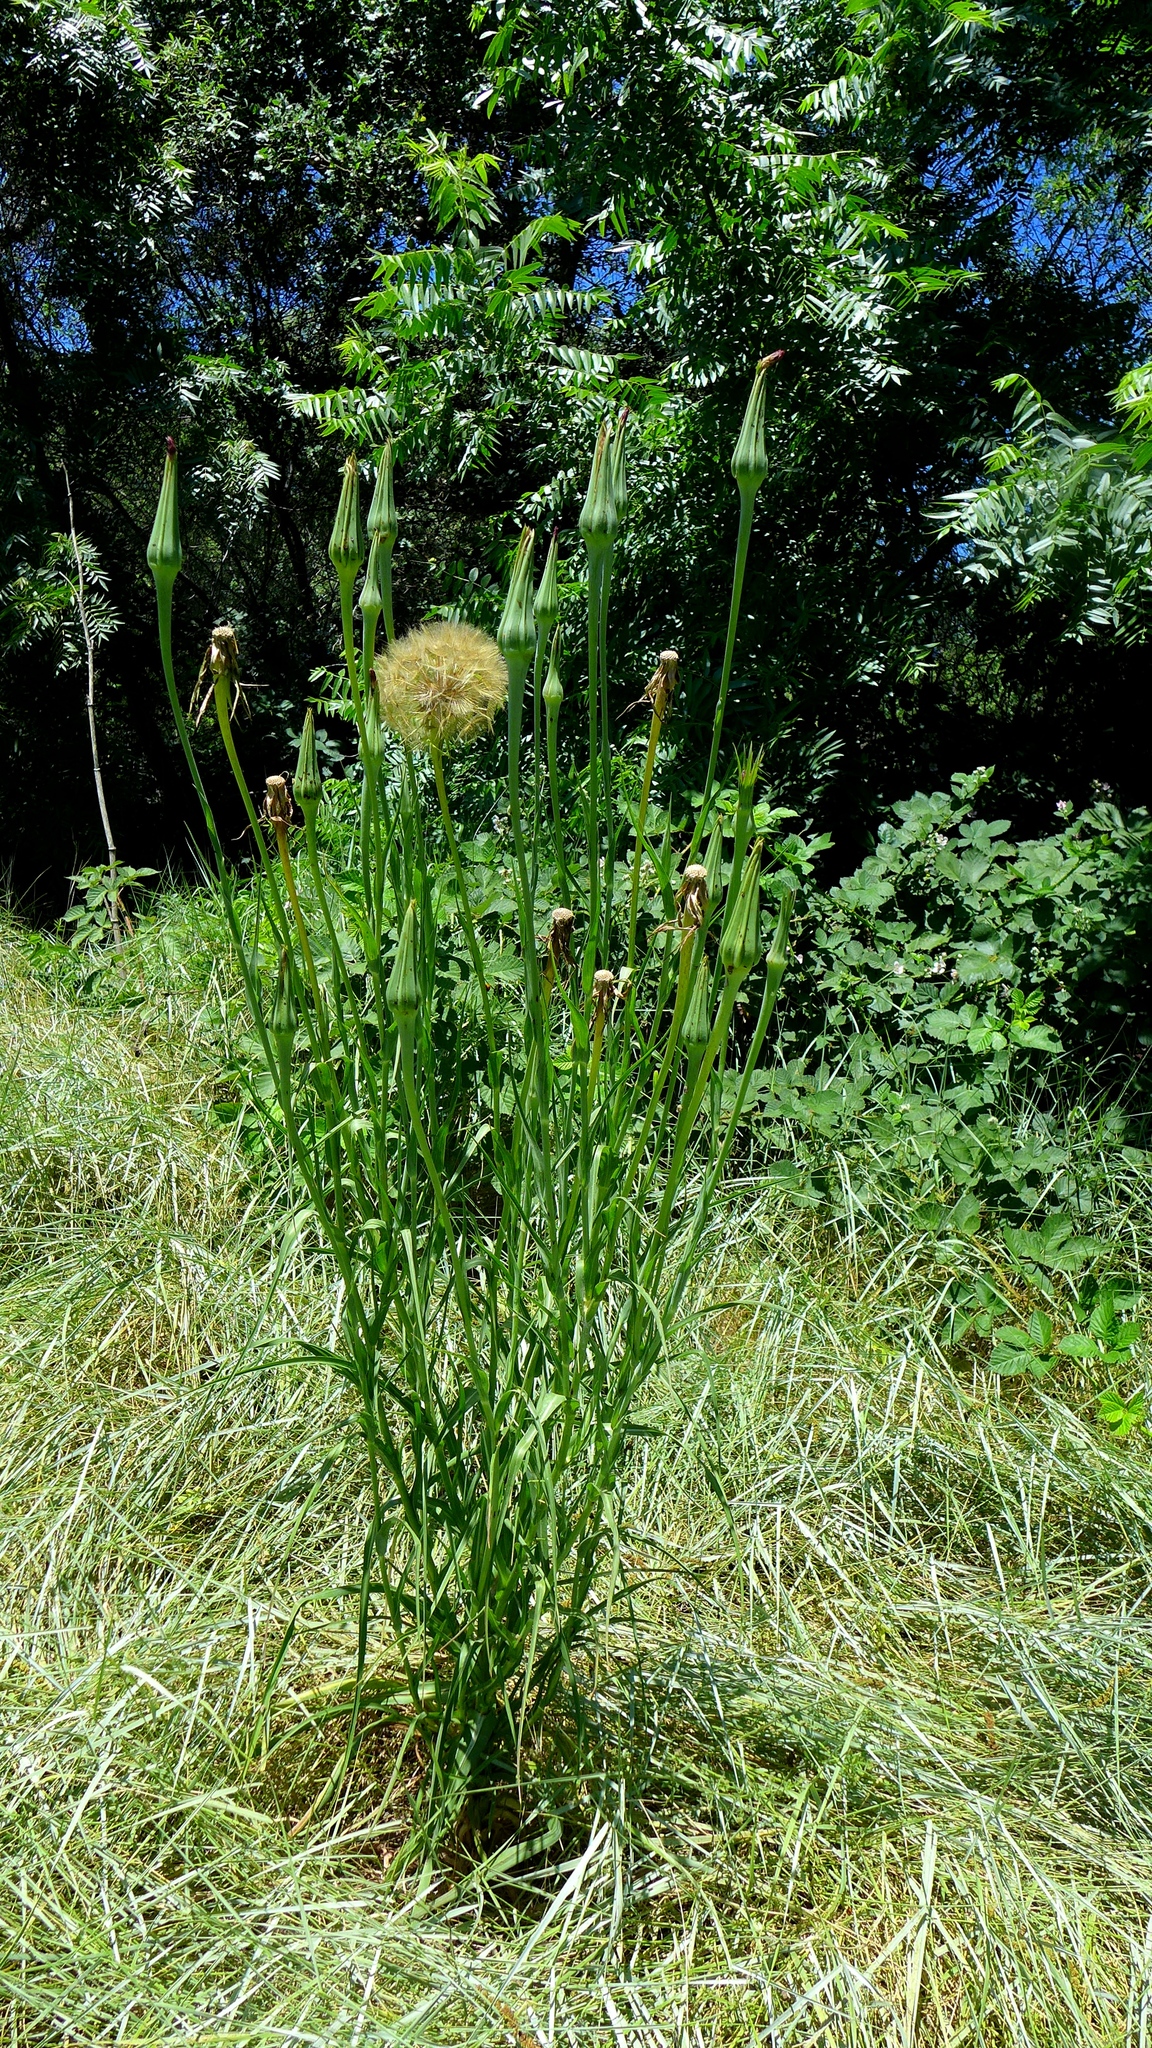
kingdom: Plantae
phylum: Tracheophyta
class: Magnoliopsida
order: Asterales
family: Asteraceae
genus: Tragopogon
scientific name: Tragopogon porrifolius
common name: Salsify
